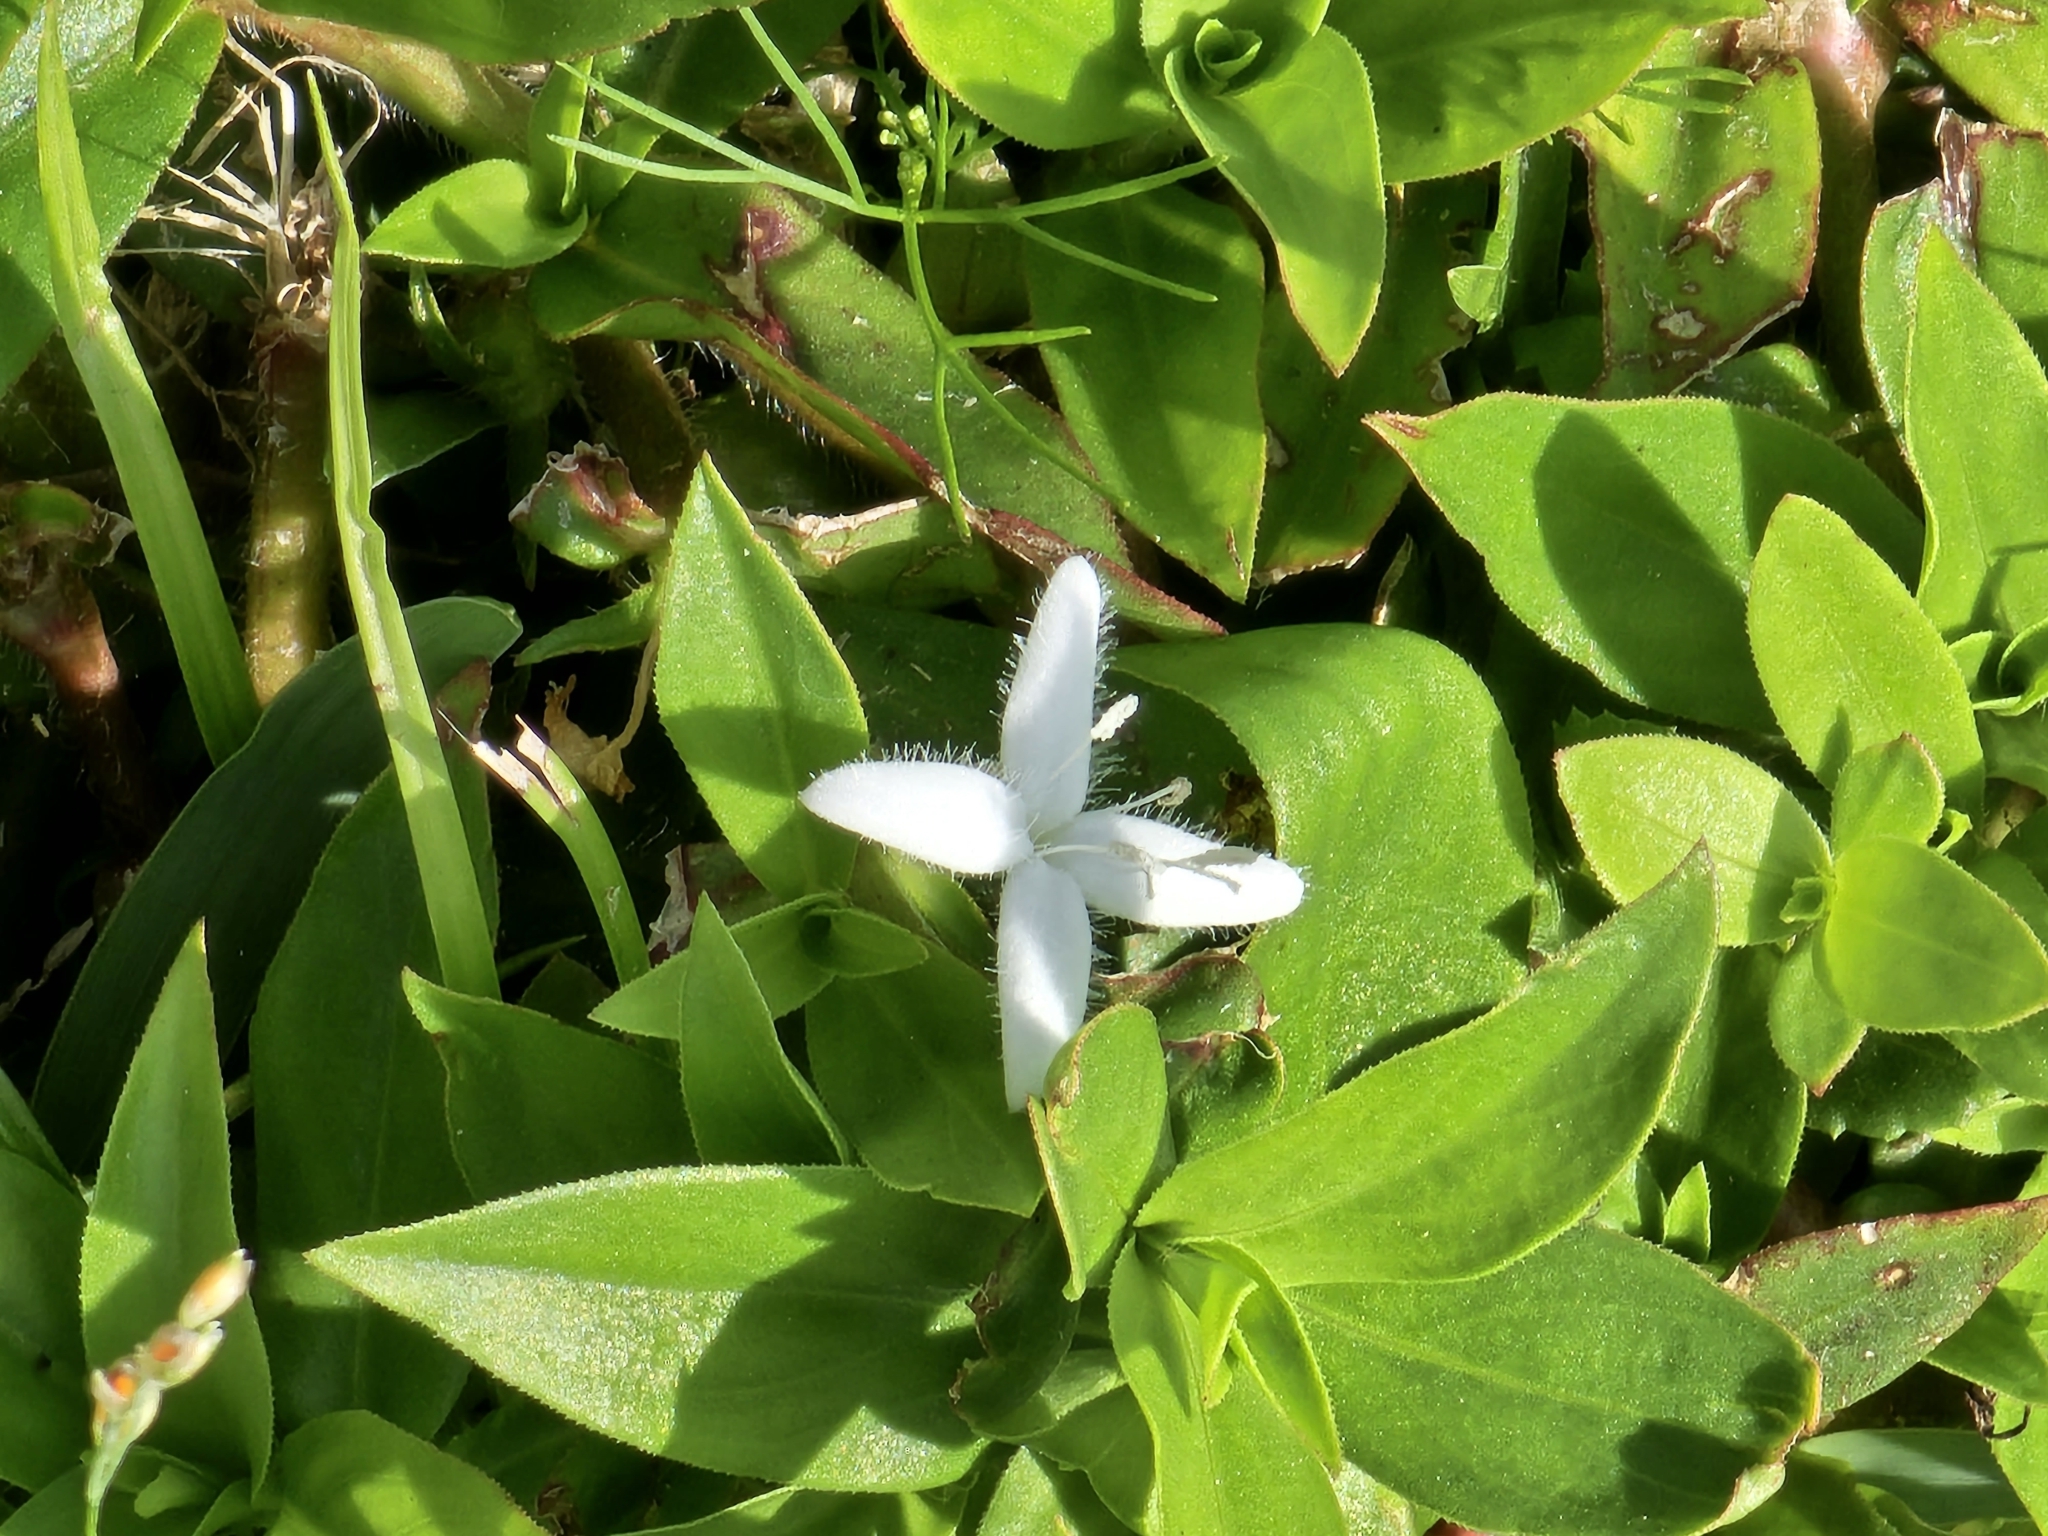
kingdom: Plantae
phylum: Tracheophyta
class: Magnoliopsida
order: Gentianales
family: Rubiaceae
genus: Diodia
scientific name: Diodia virginiana
